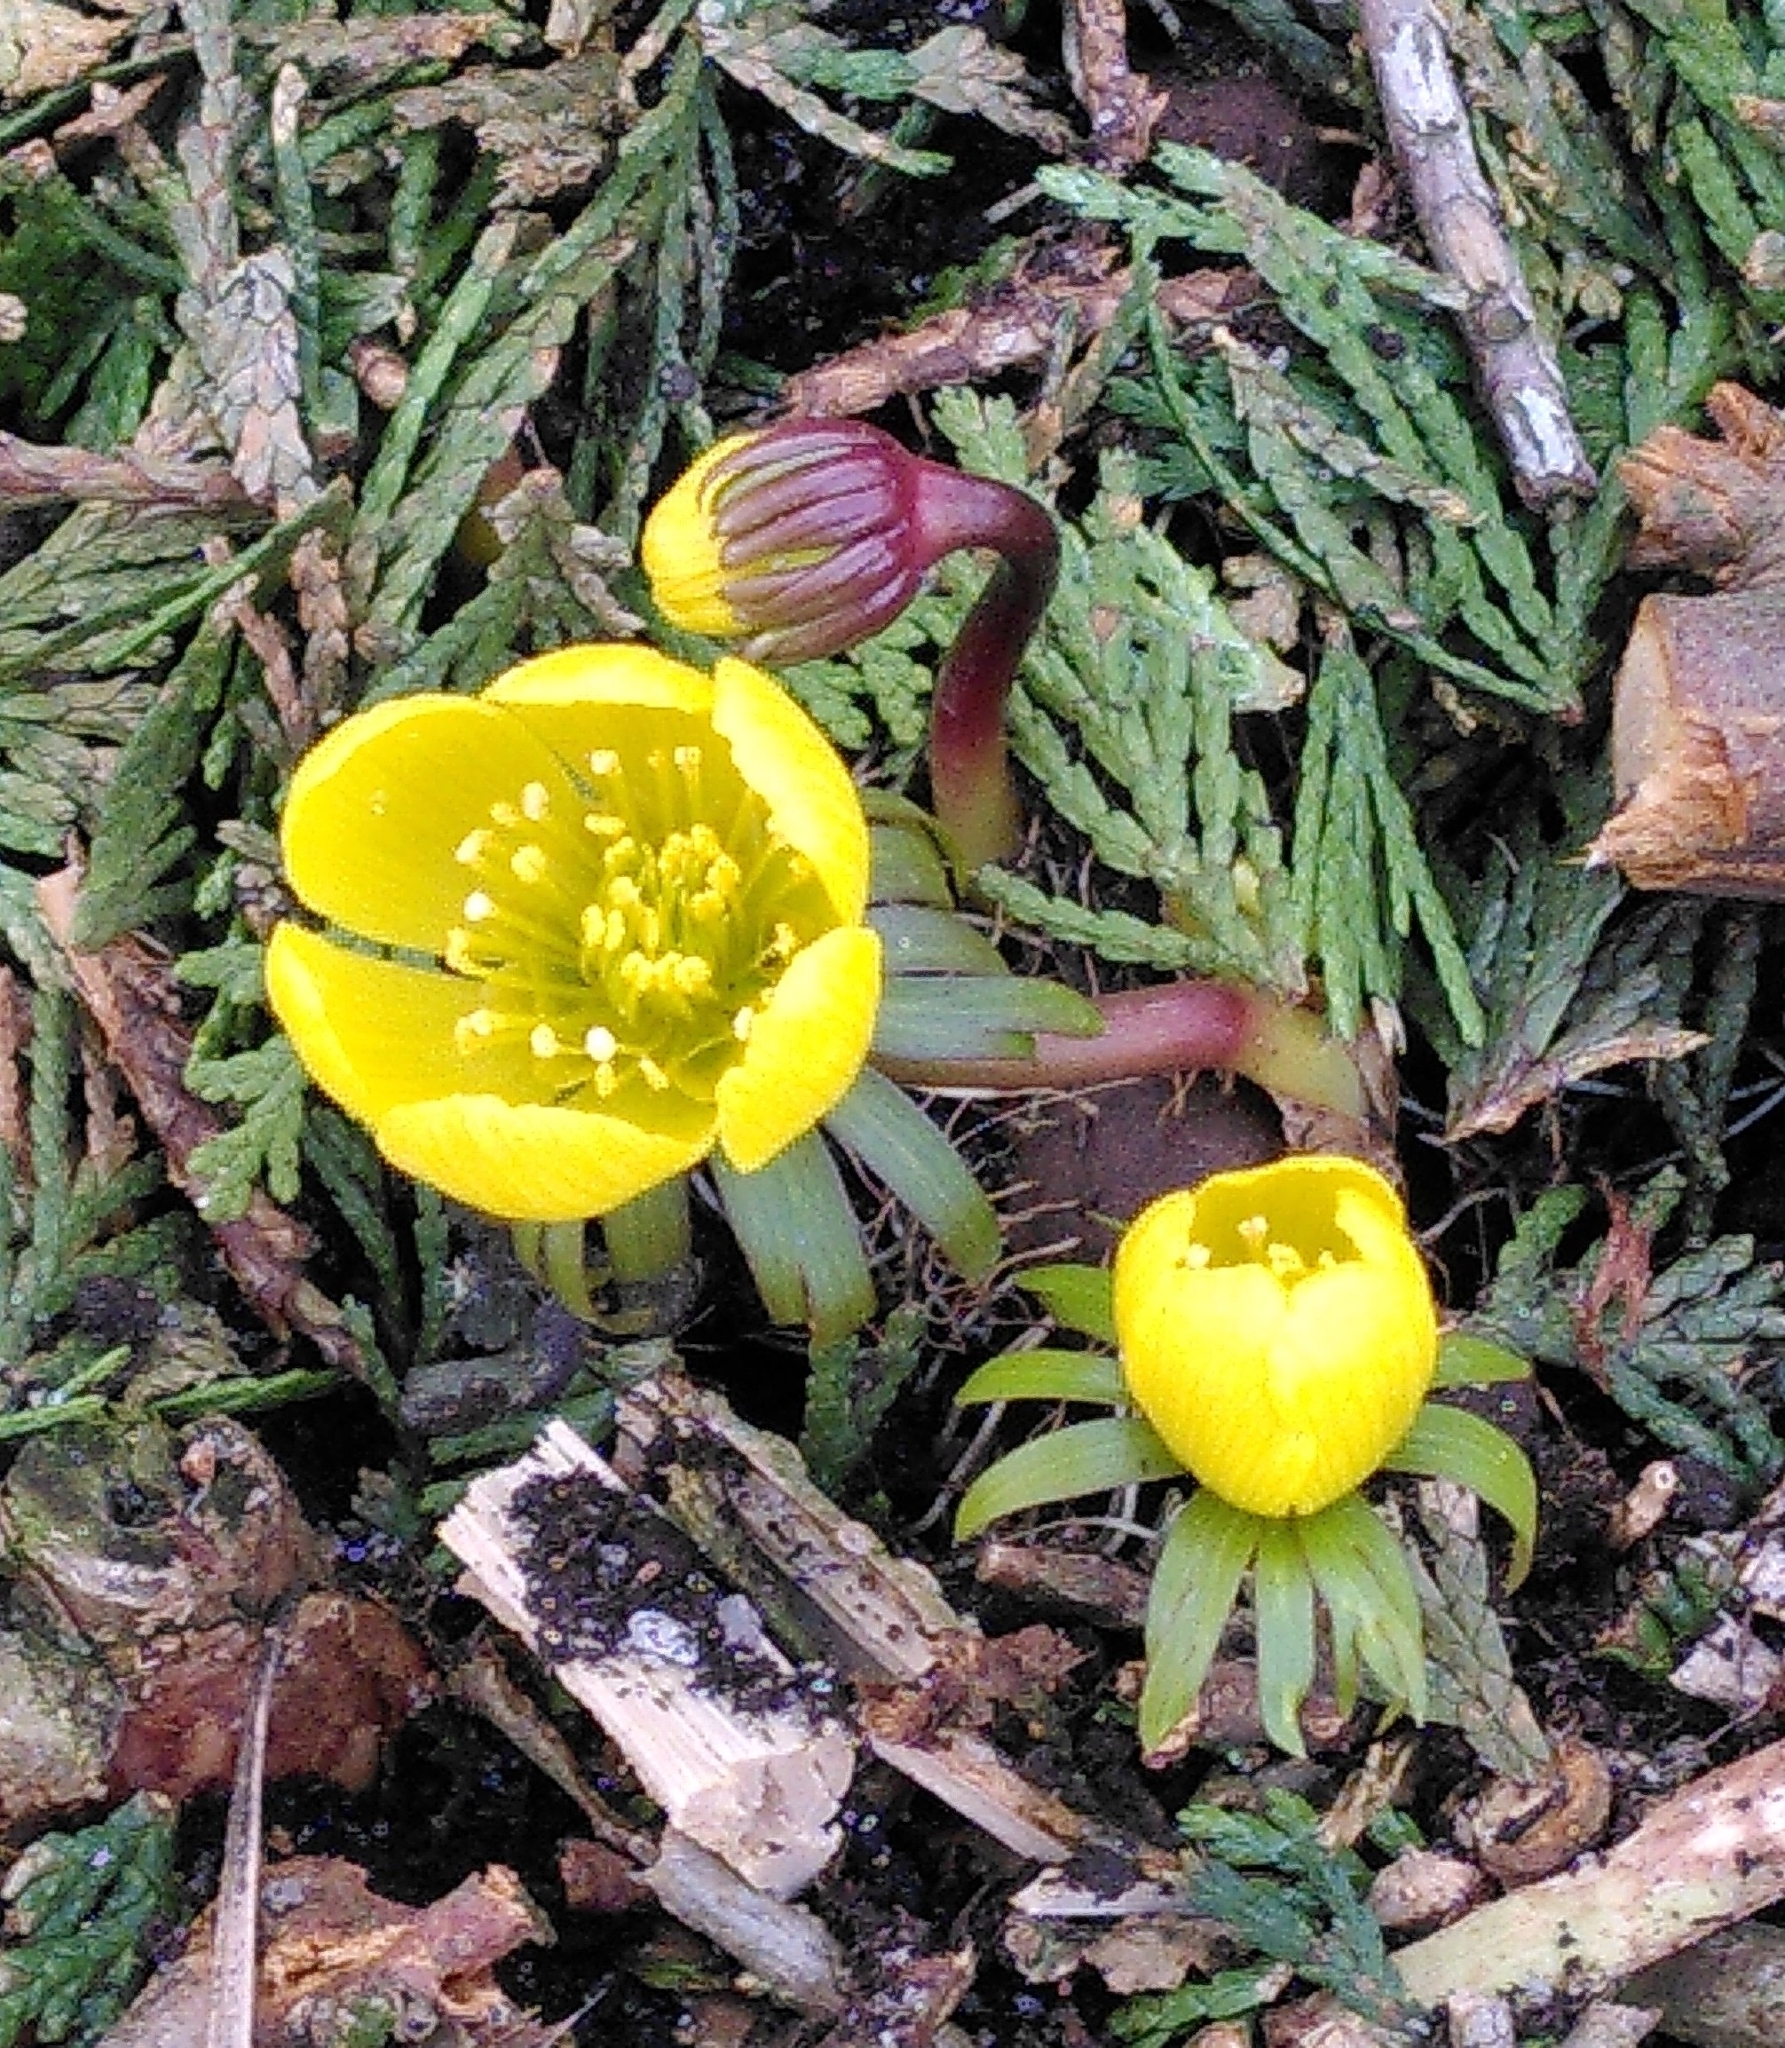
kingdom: Plantae
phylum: Tracheophyta
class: Magnoliopsida
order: Ranunculales
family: Ranunculaceae
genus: Eranthis
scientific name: Eranthis hyemalis
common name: Winter aconite
